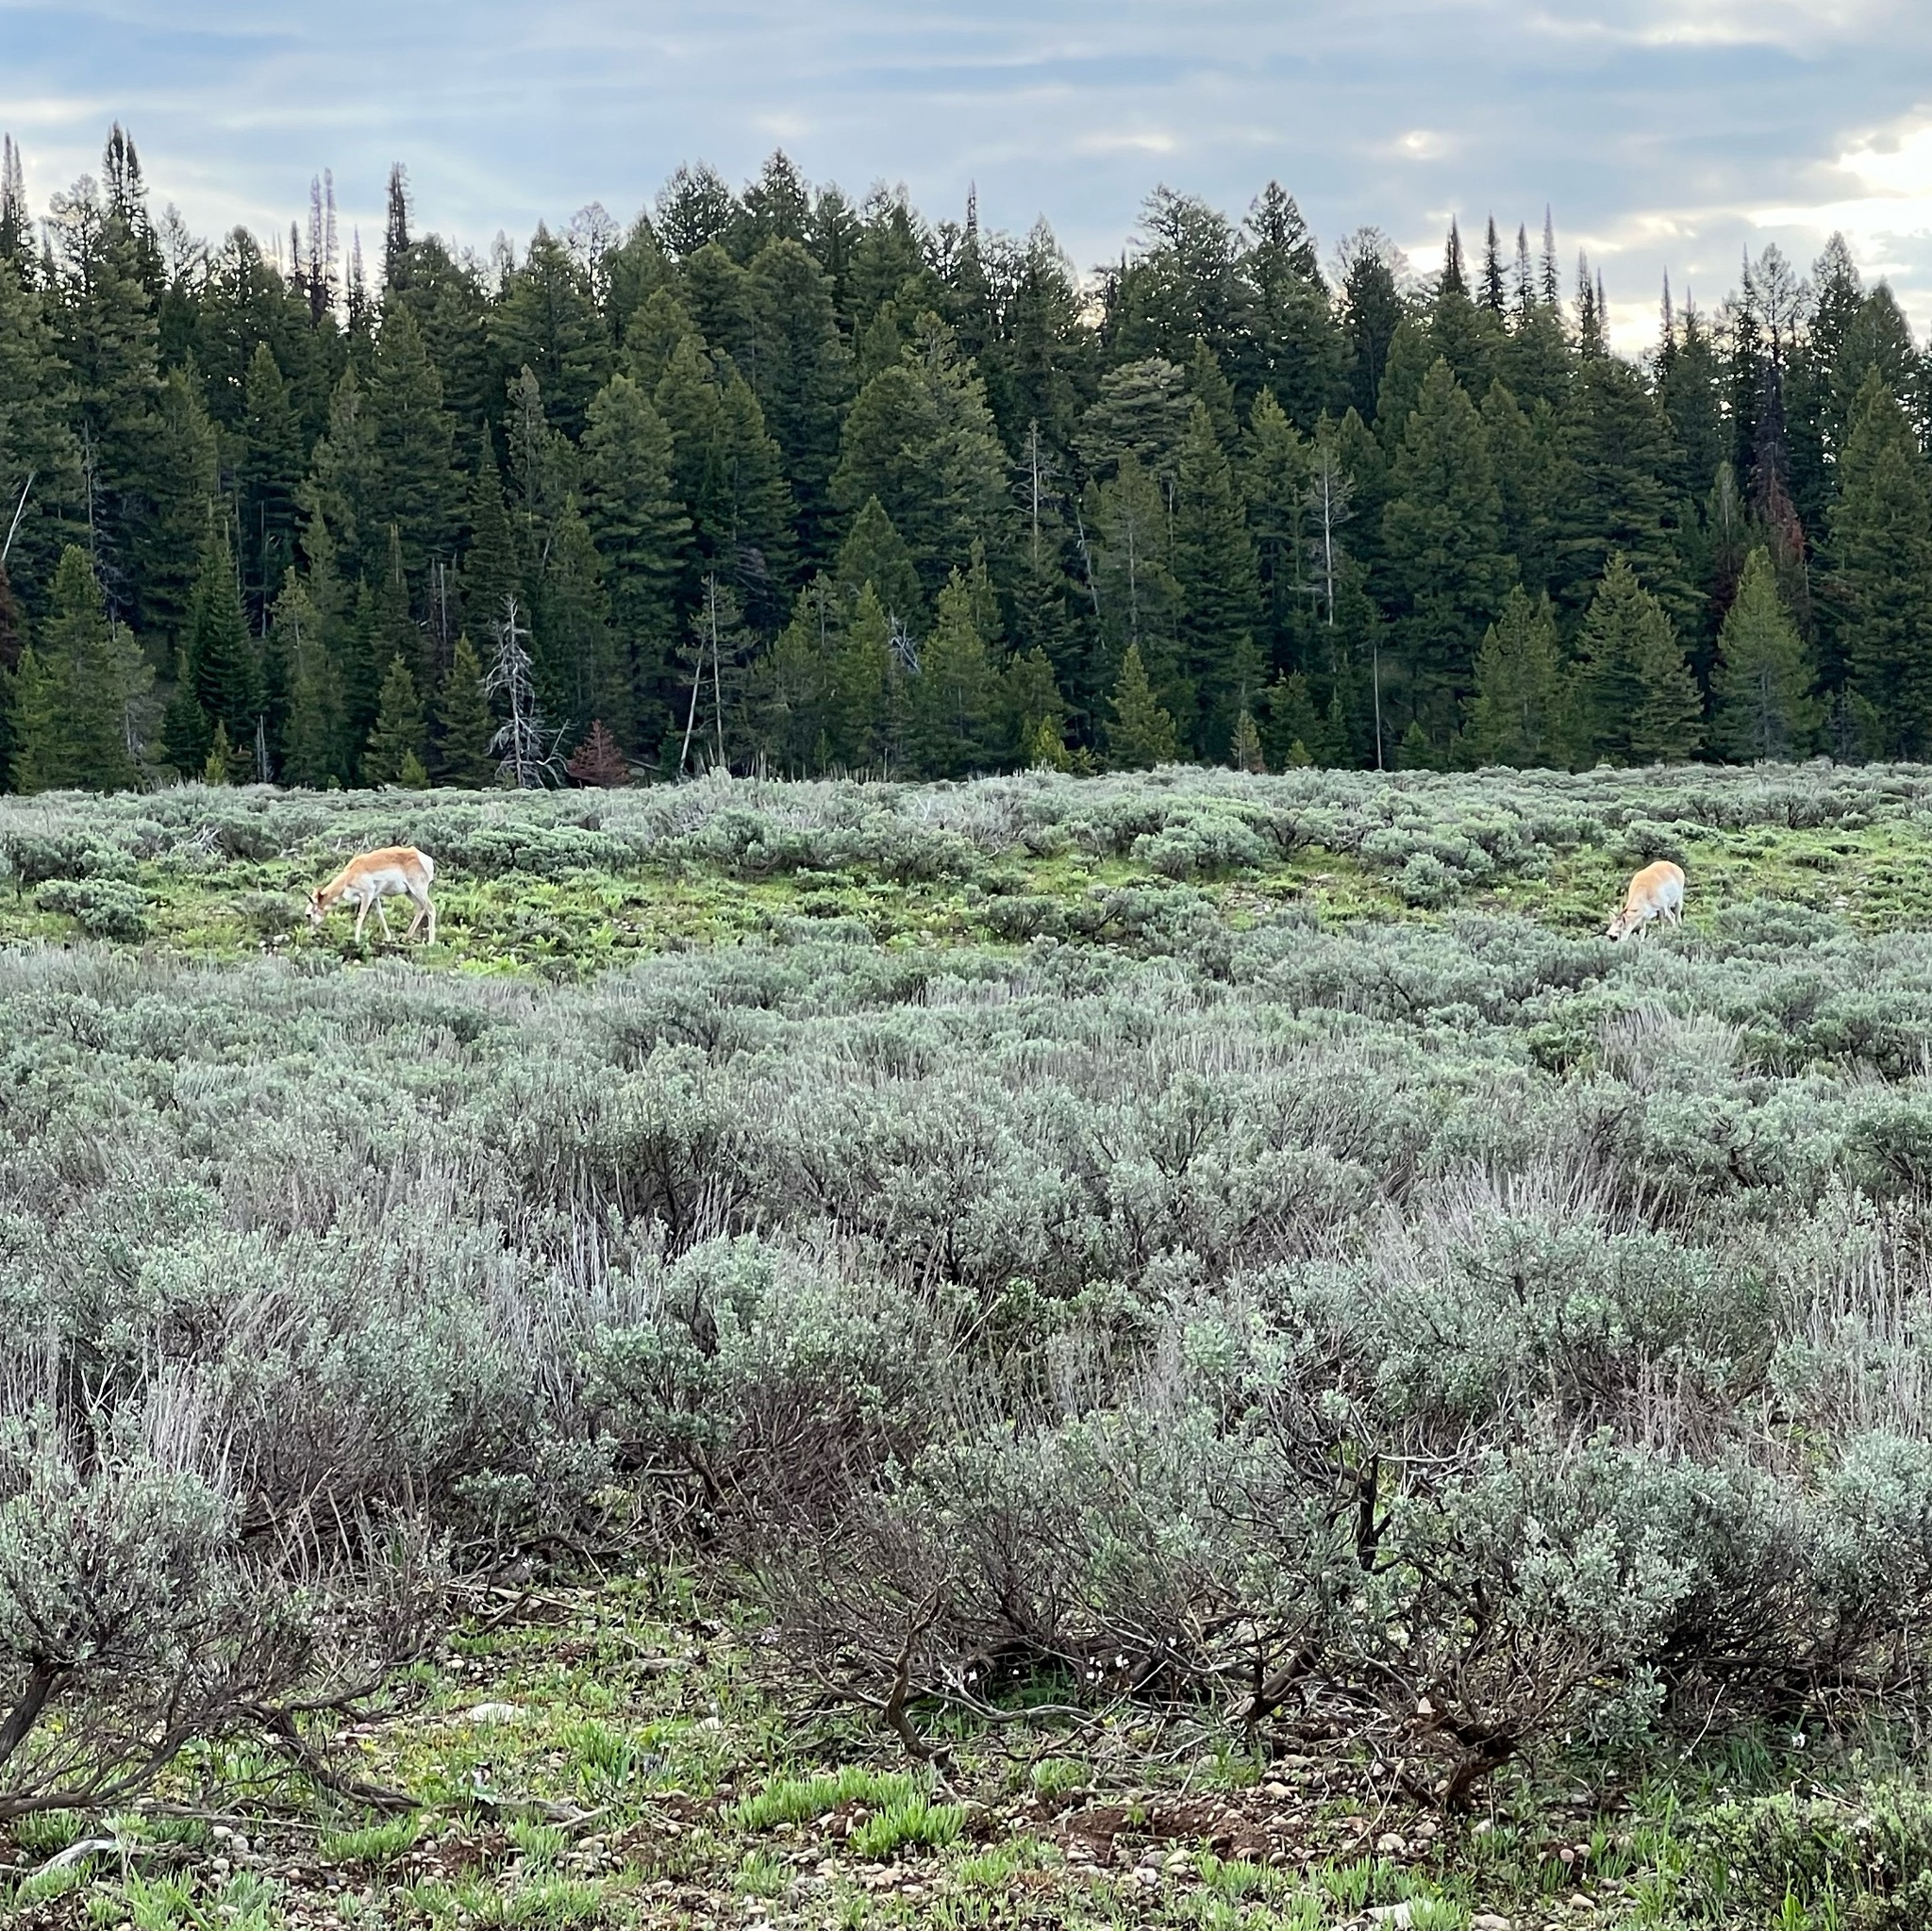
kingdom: Animalia
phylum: Chordata
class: Mammalia
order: Artiodactyla
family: Antilocapridae
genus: Antilocapra
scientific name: Antilocapra americana
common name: Pronghorn
